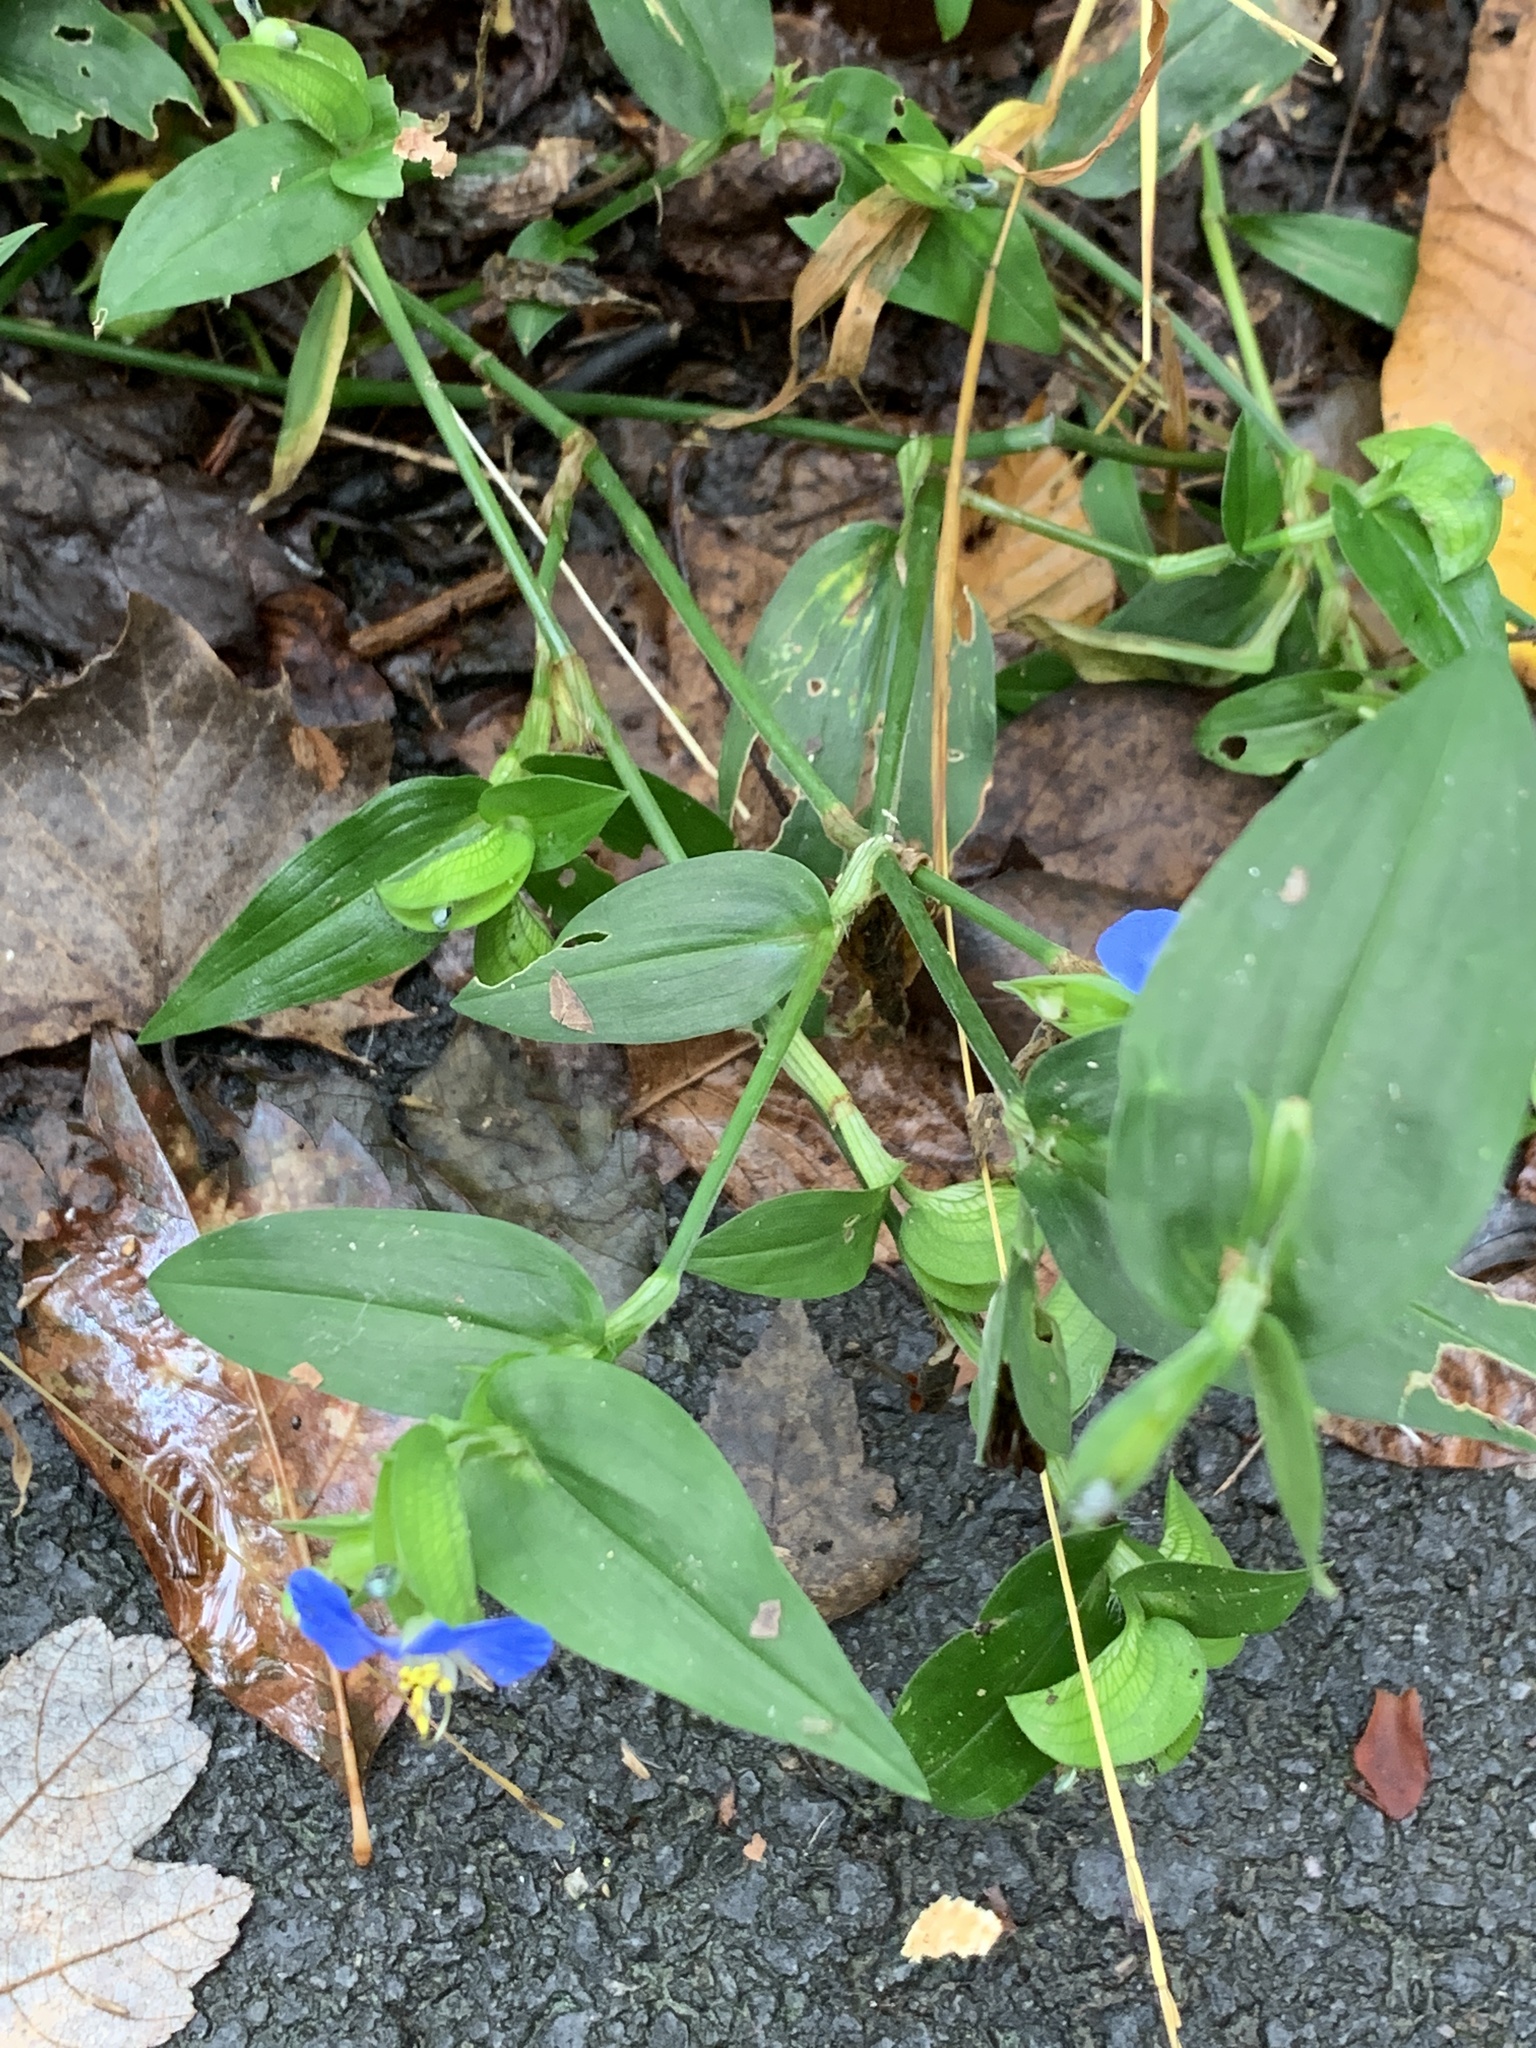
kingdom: Plantae
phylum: Tracheophyta
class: Liliopsida
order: Commelinales
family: Commelinaceae
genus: Commelina
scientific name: Commelina communis
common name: Asiatic dayflower
